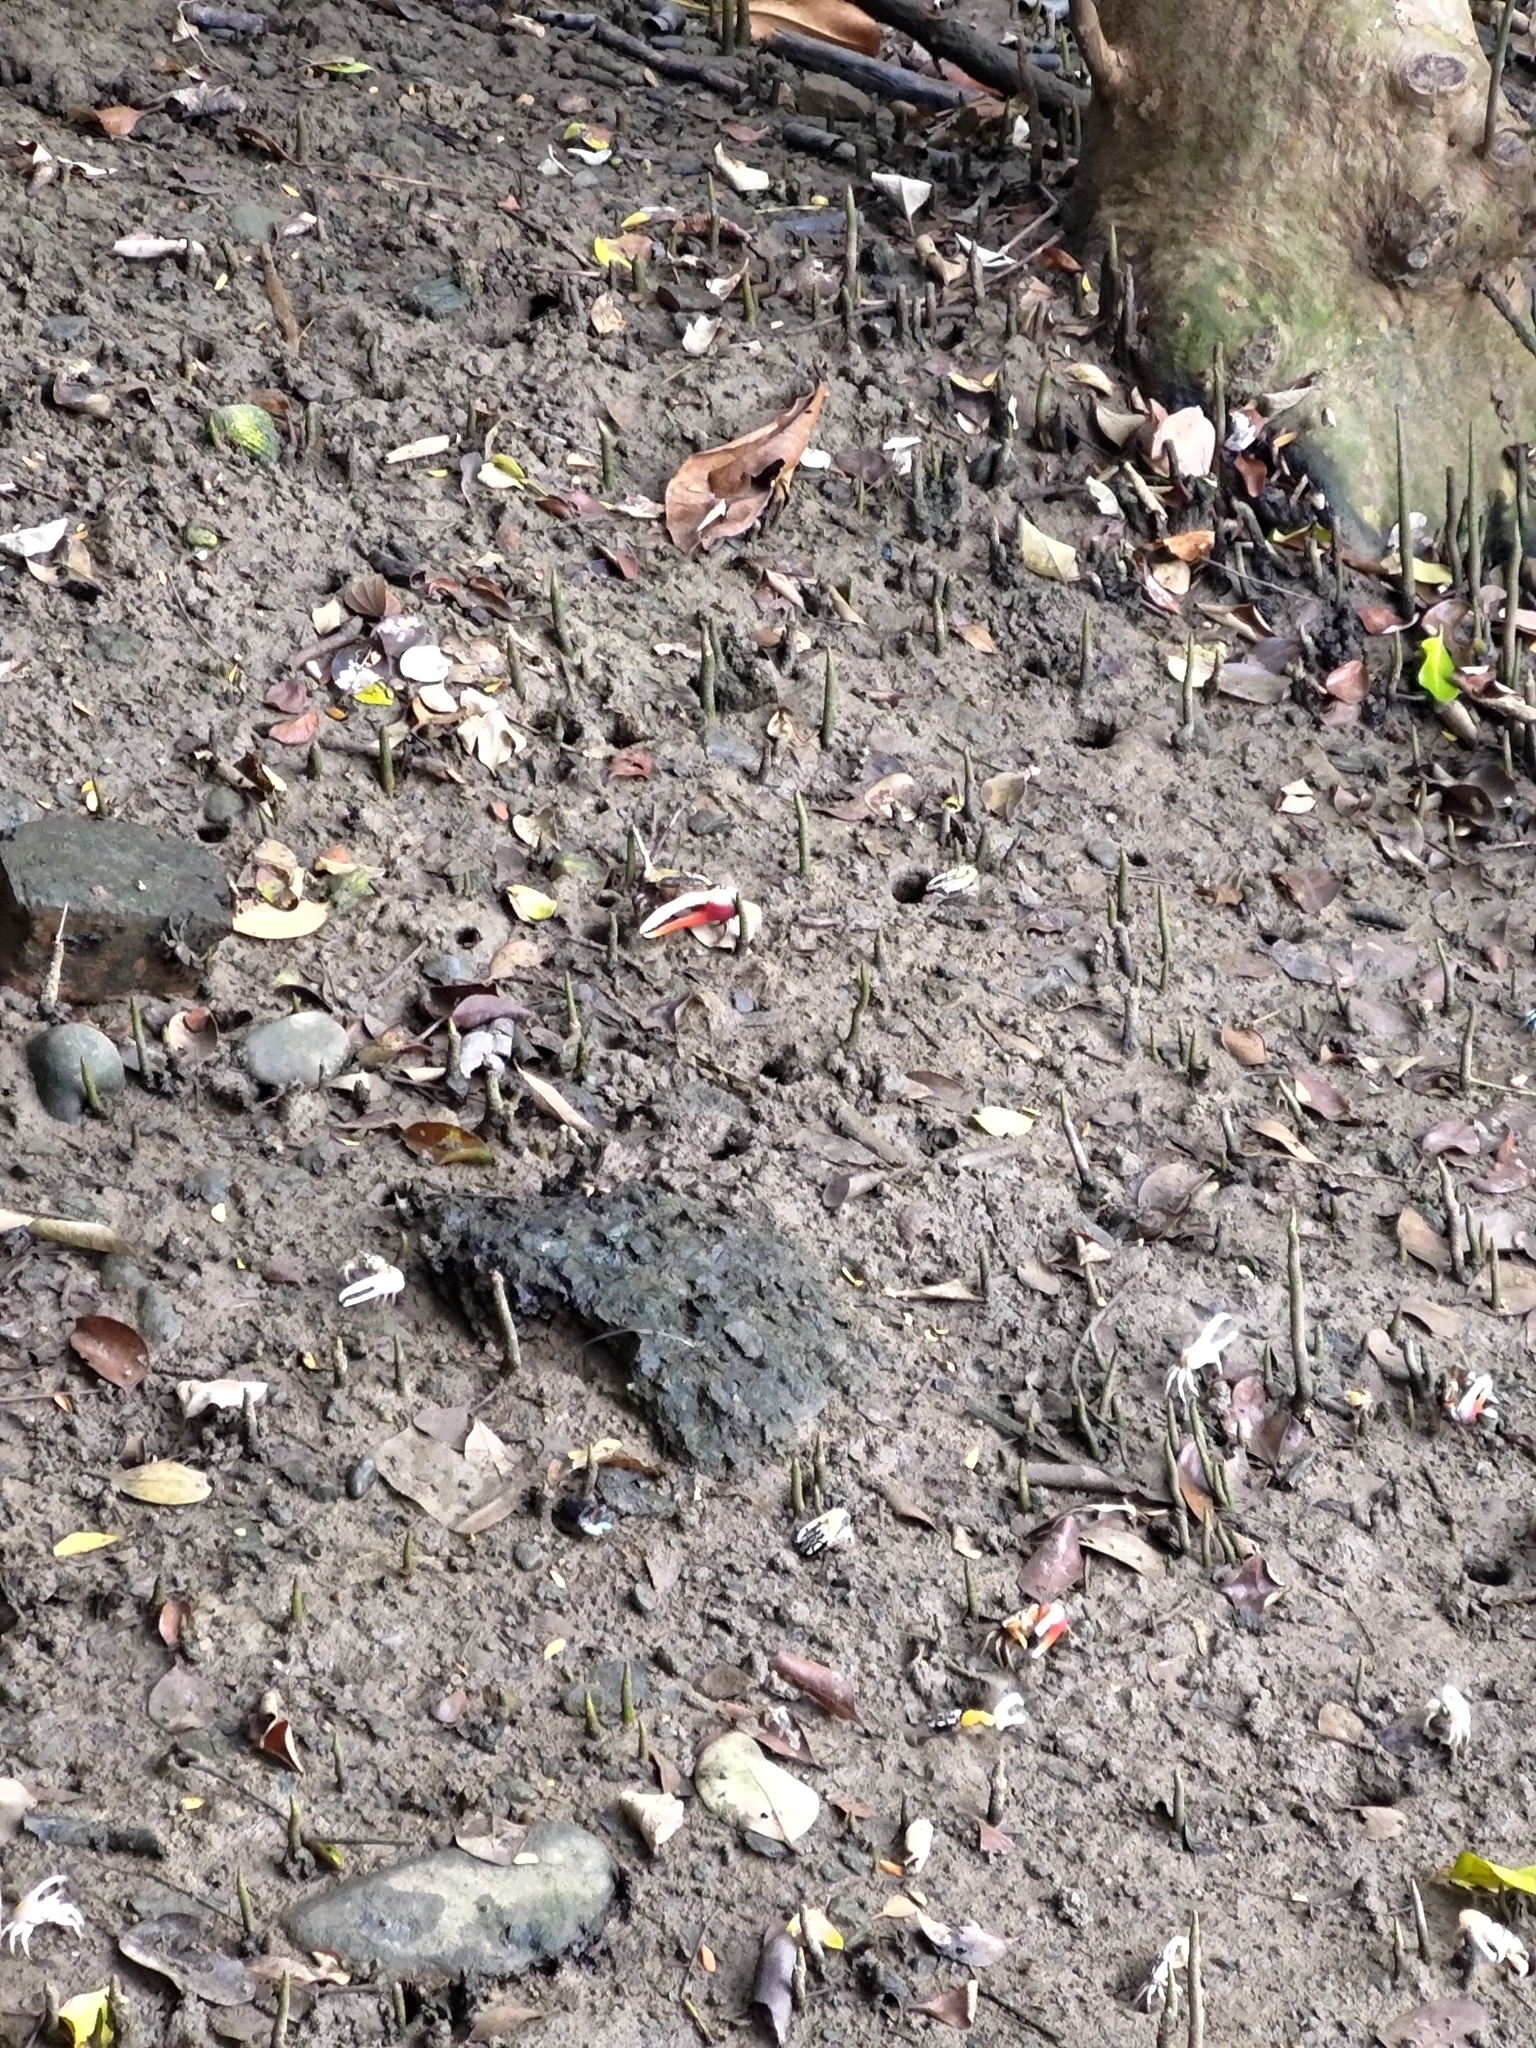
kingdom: Animalia
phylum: Arthropoda
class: Malacostraca
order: Decapoda
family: Ocypodidae
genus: Tubuca
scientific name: Tubuca dussumieri
